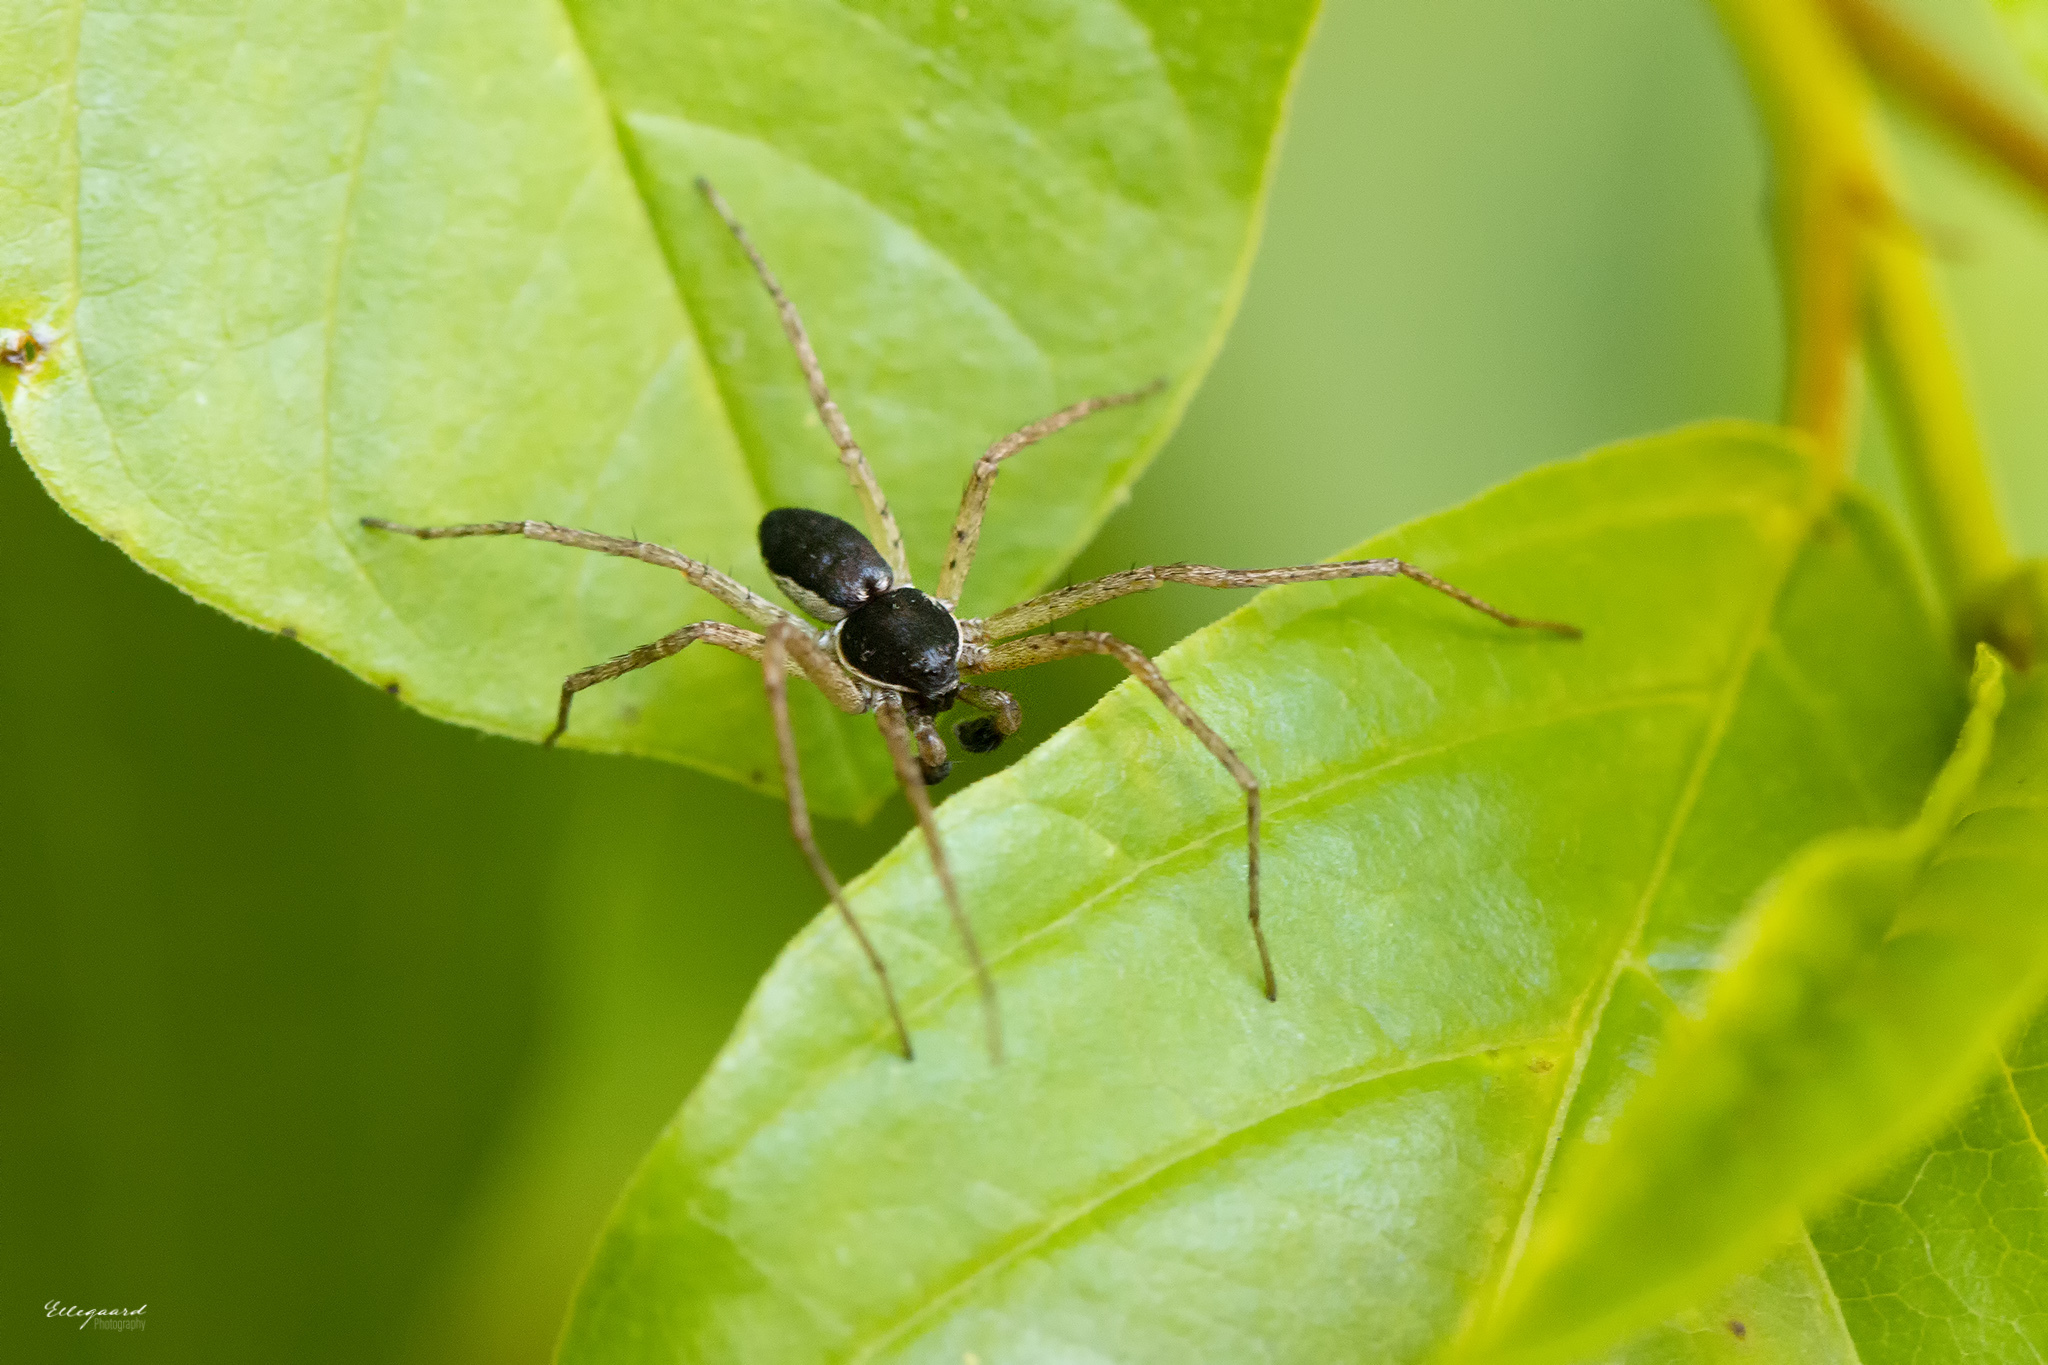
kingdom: Animalia
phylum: Arthropoda
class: Arachnida
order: Araneae
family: Philodromidae
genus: Philodromus
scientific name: Philodromus dispar
